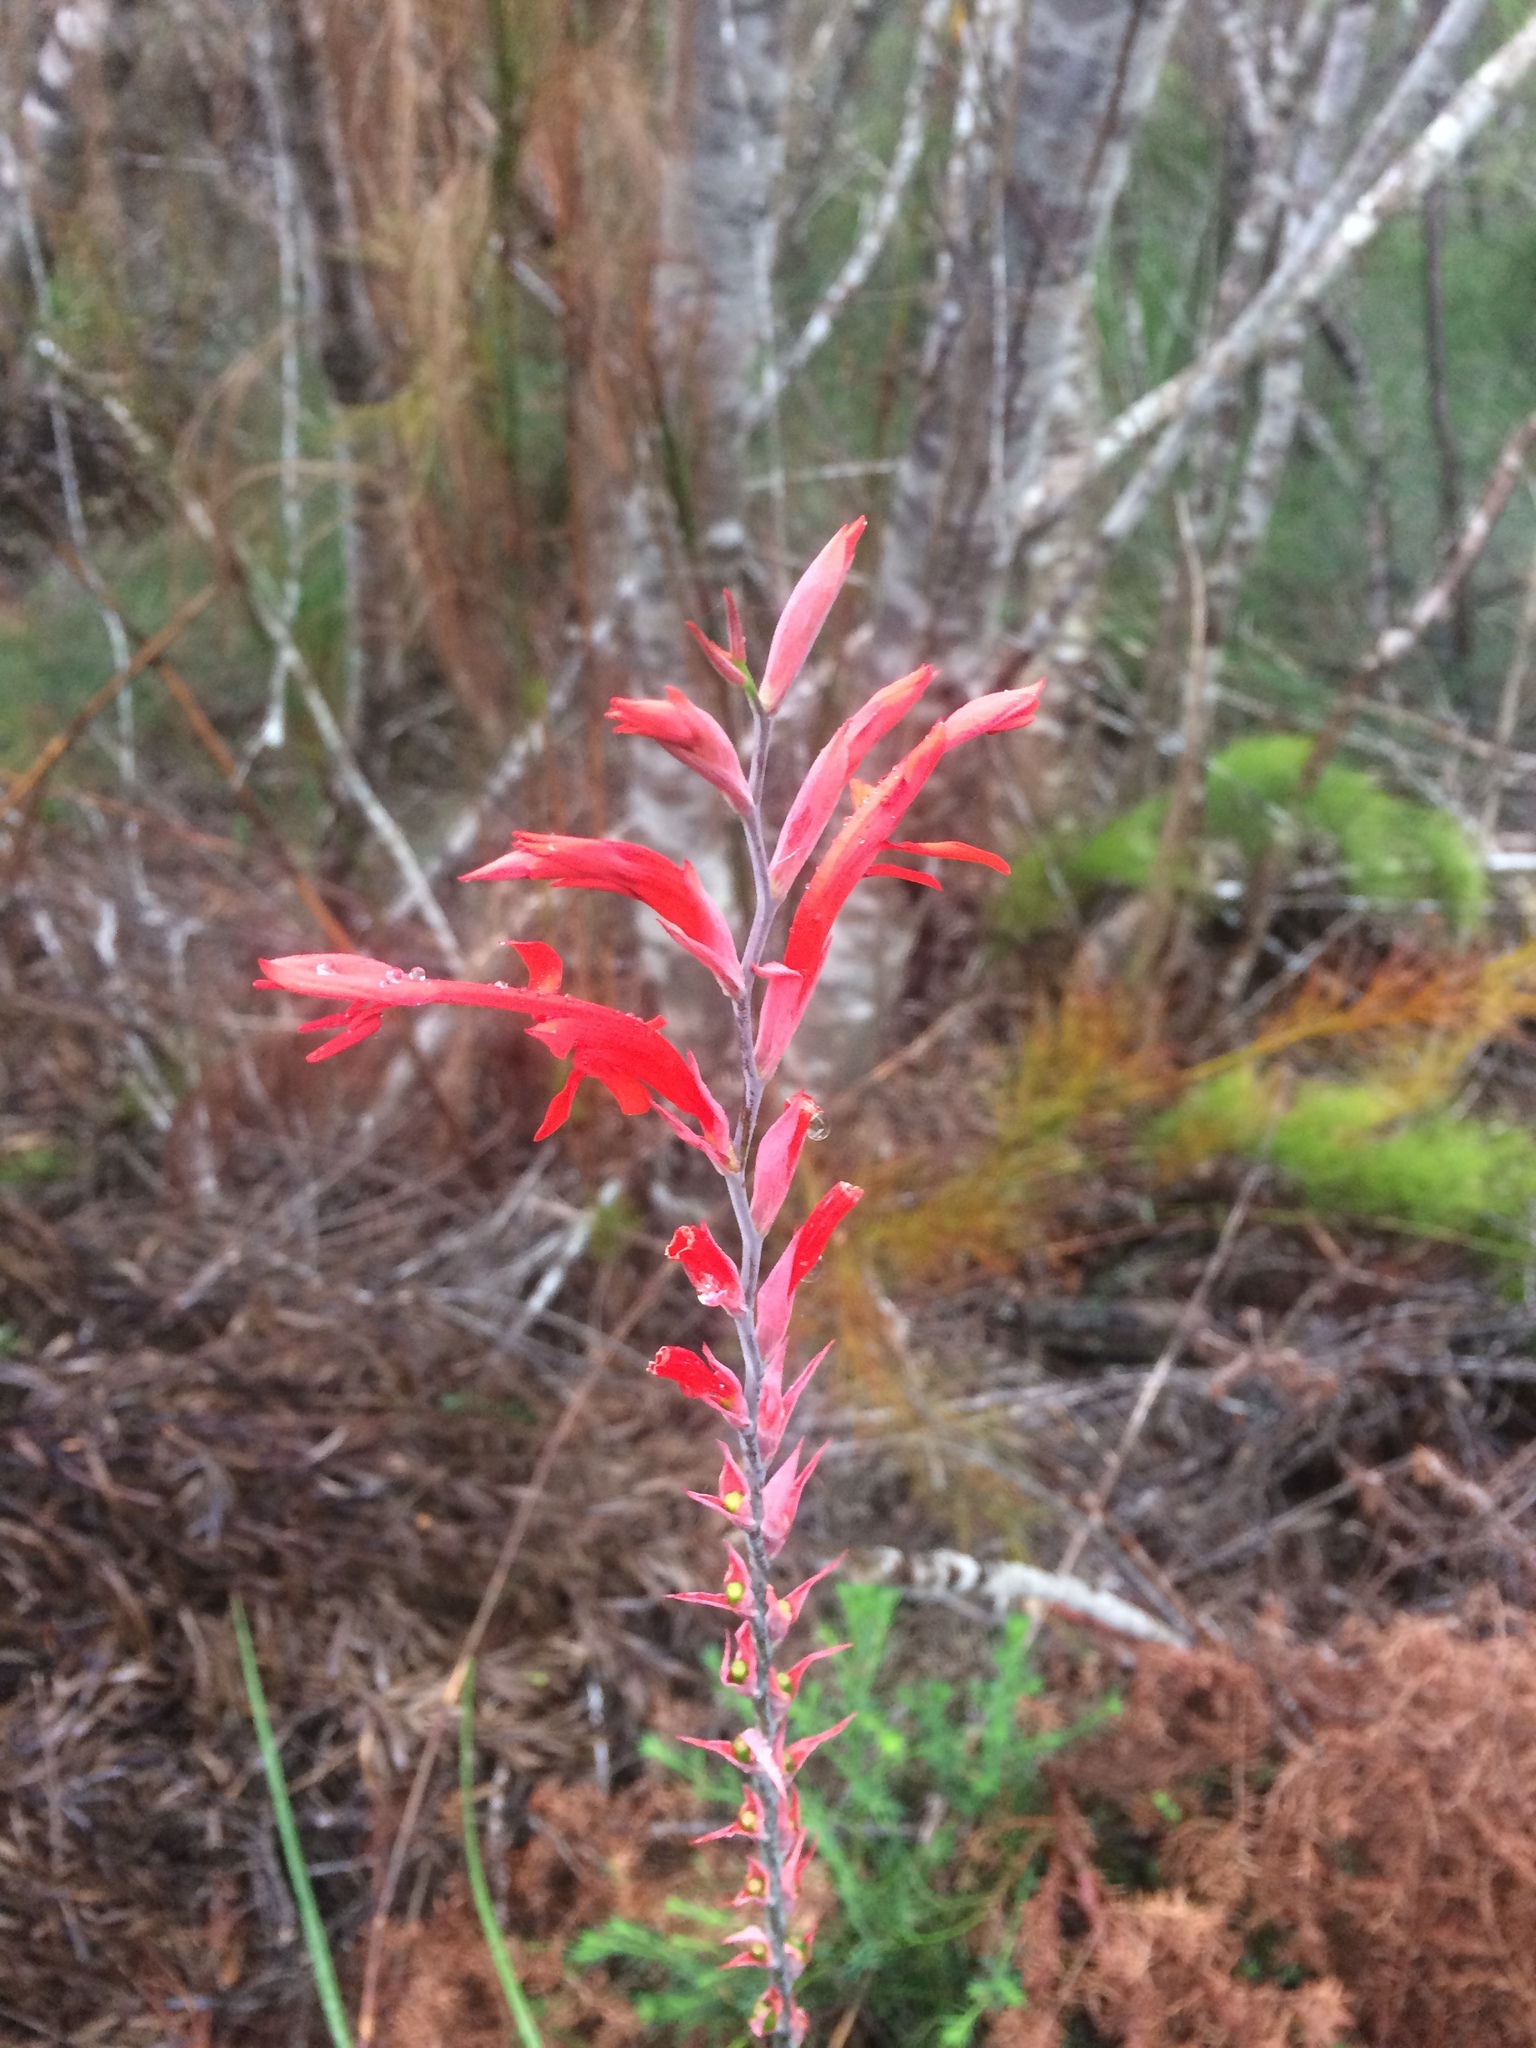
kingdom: Plantae
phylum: Tracheophyta
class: Liliopsida
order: Asparagales
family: Iridaceae
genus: Tritoniopsis
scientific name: Tritoniopsis caffra
